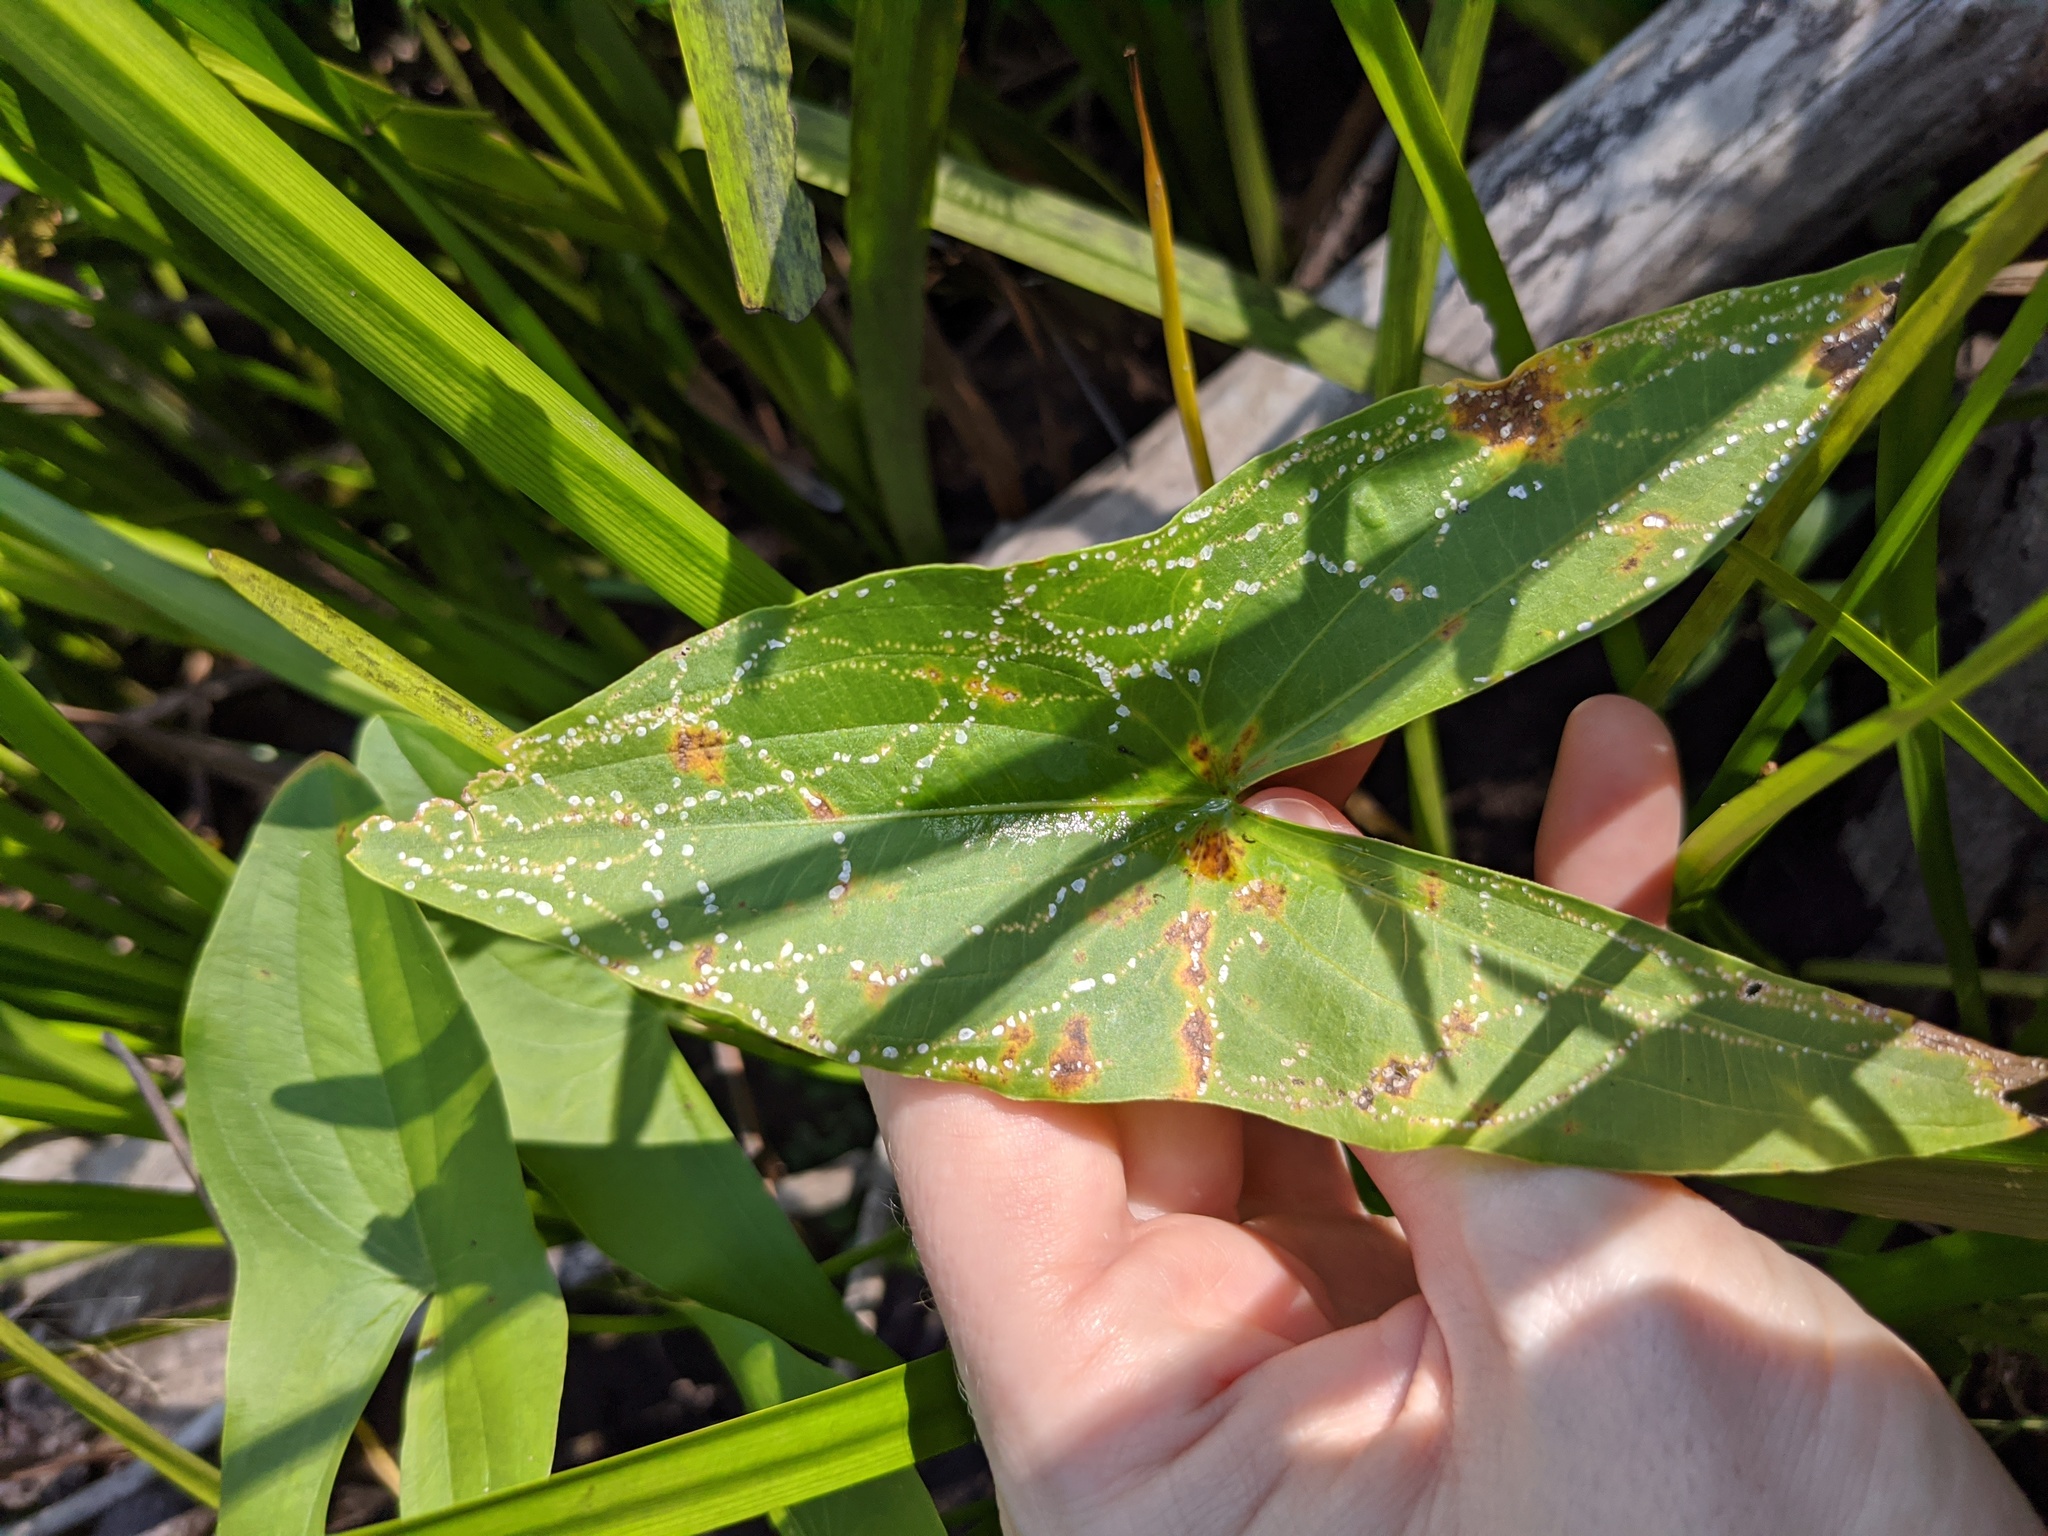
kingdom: Plantae
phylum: Tracheophyta
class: Liliopsida
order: Alismatales
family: Alismataceae
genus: Sagittaria
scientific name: Sagittaria latifolia
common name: Duck-potato
